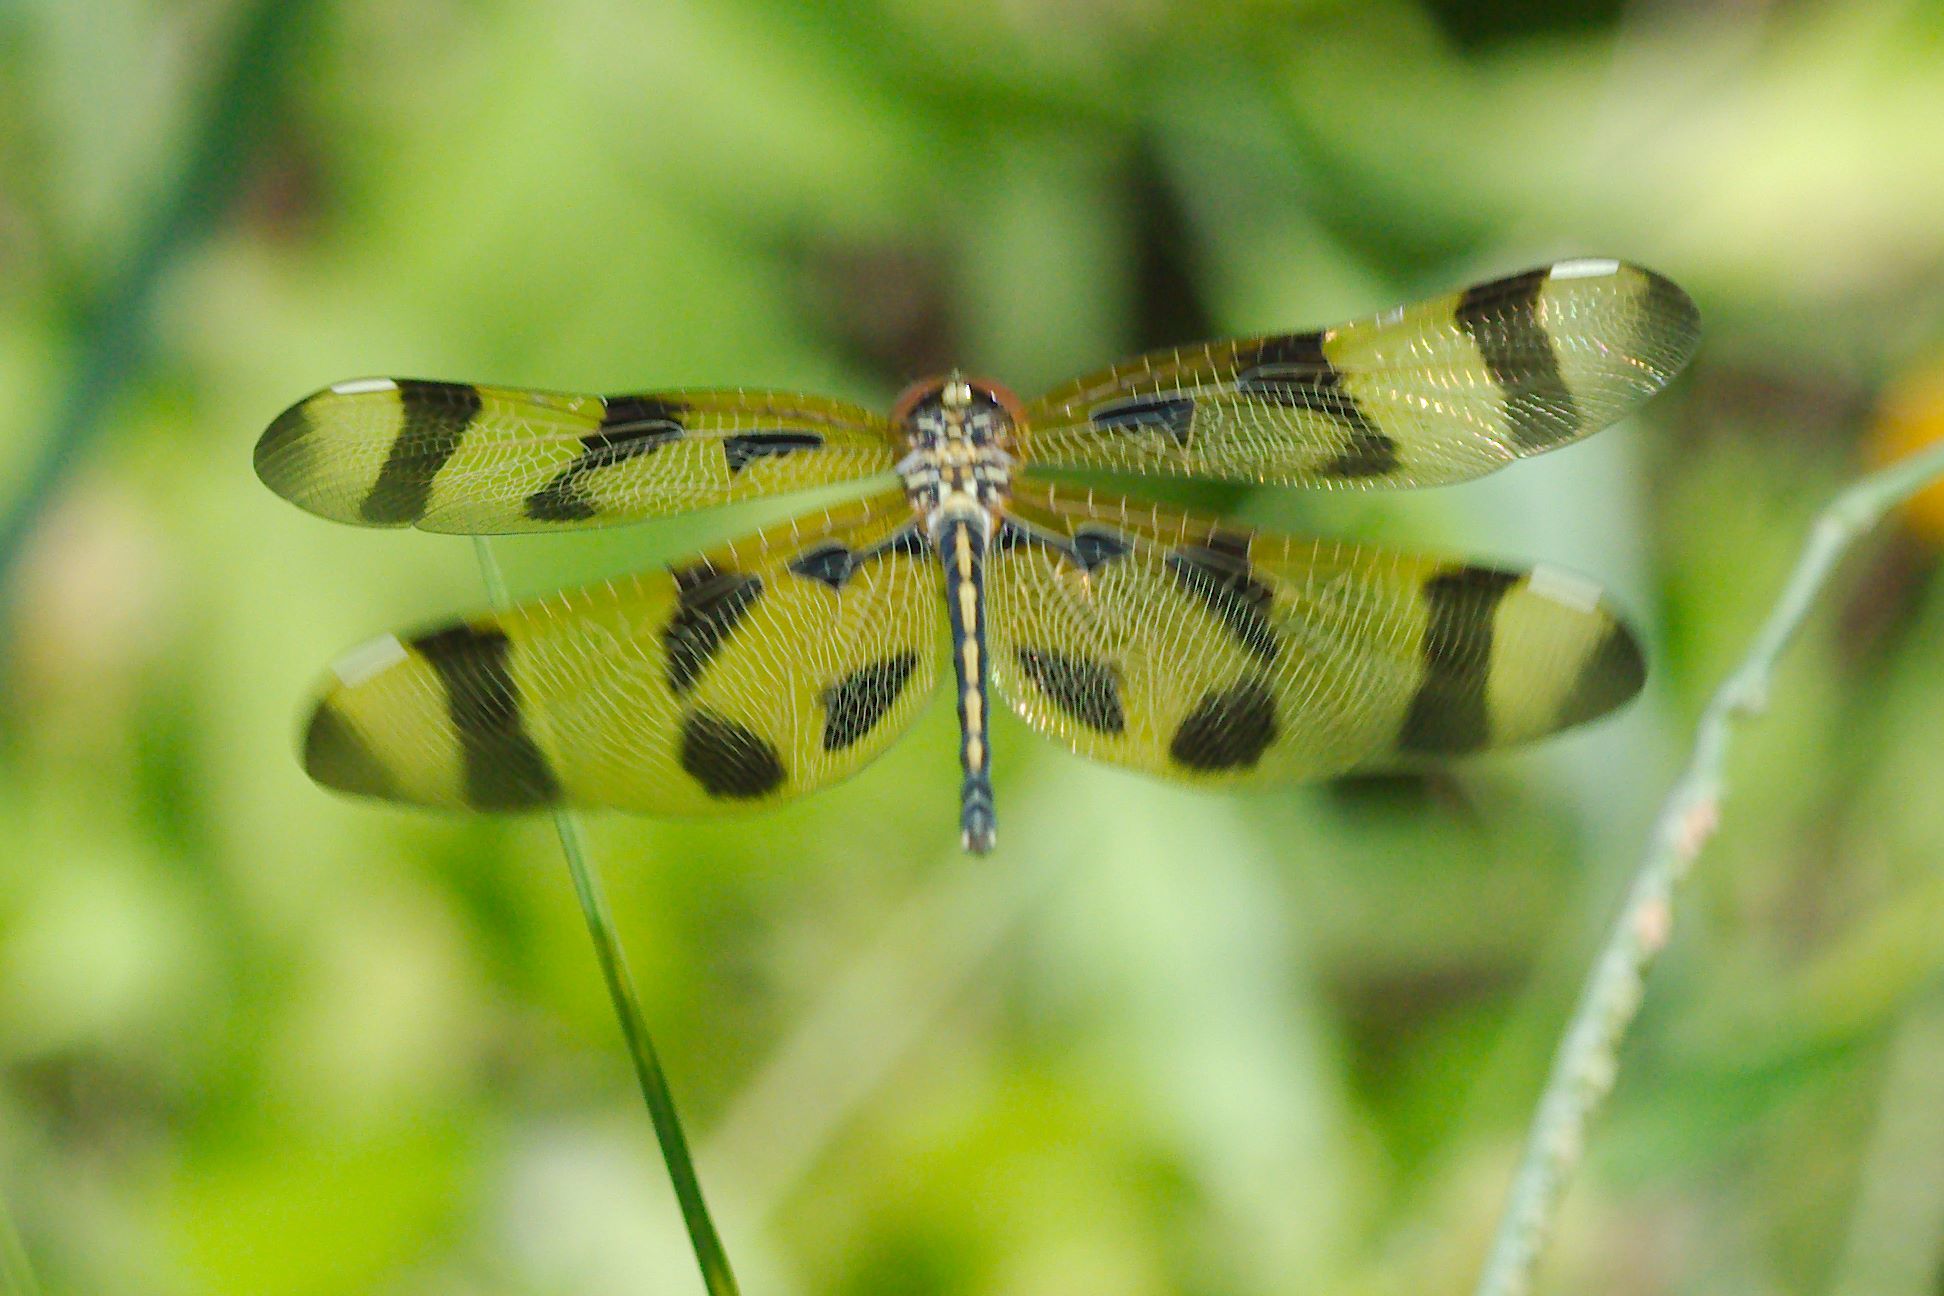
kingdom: Animalia
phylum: Arthropoda
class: Insecta
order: Odonata
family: Libellulidae
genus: Celithemis
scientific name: Celithemis eponina
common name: Halloween pennant
